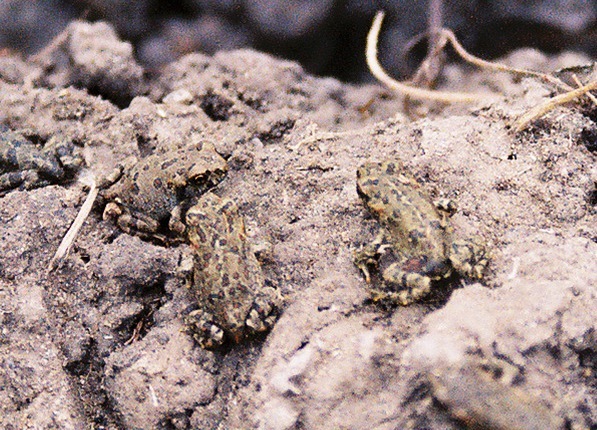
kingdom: Animalia
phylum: Chordata
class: Amphibia
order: Anura
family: Bufonidae
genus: Anaxyrus
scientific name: Anaxyrus boreas
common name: Western toad
